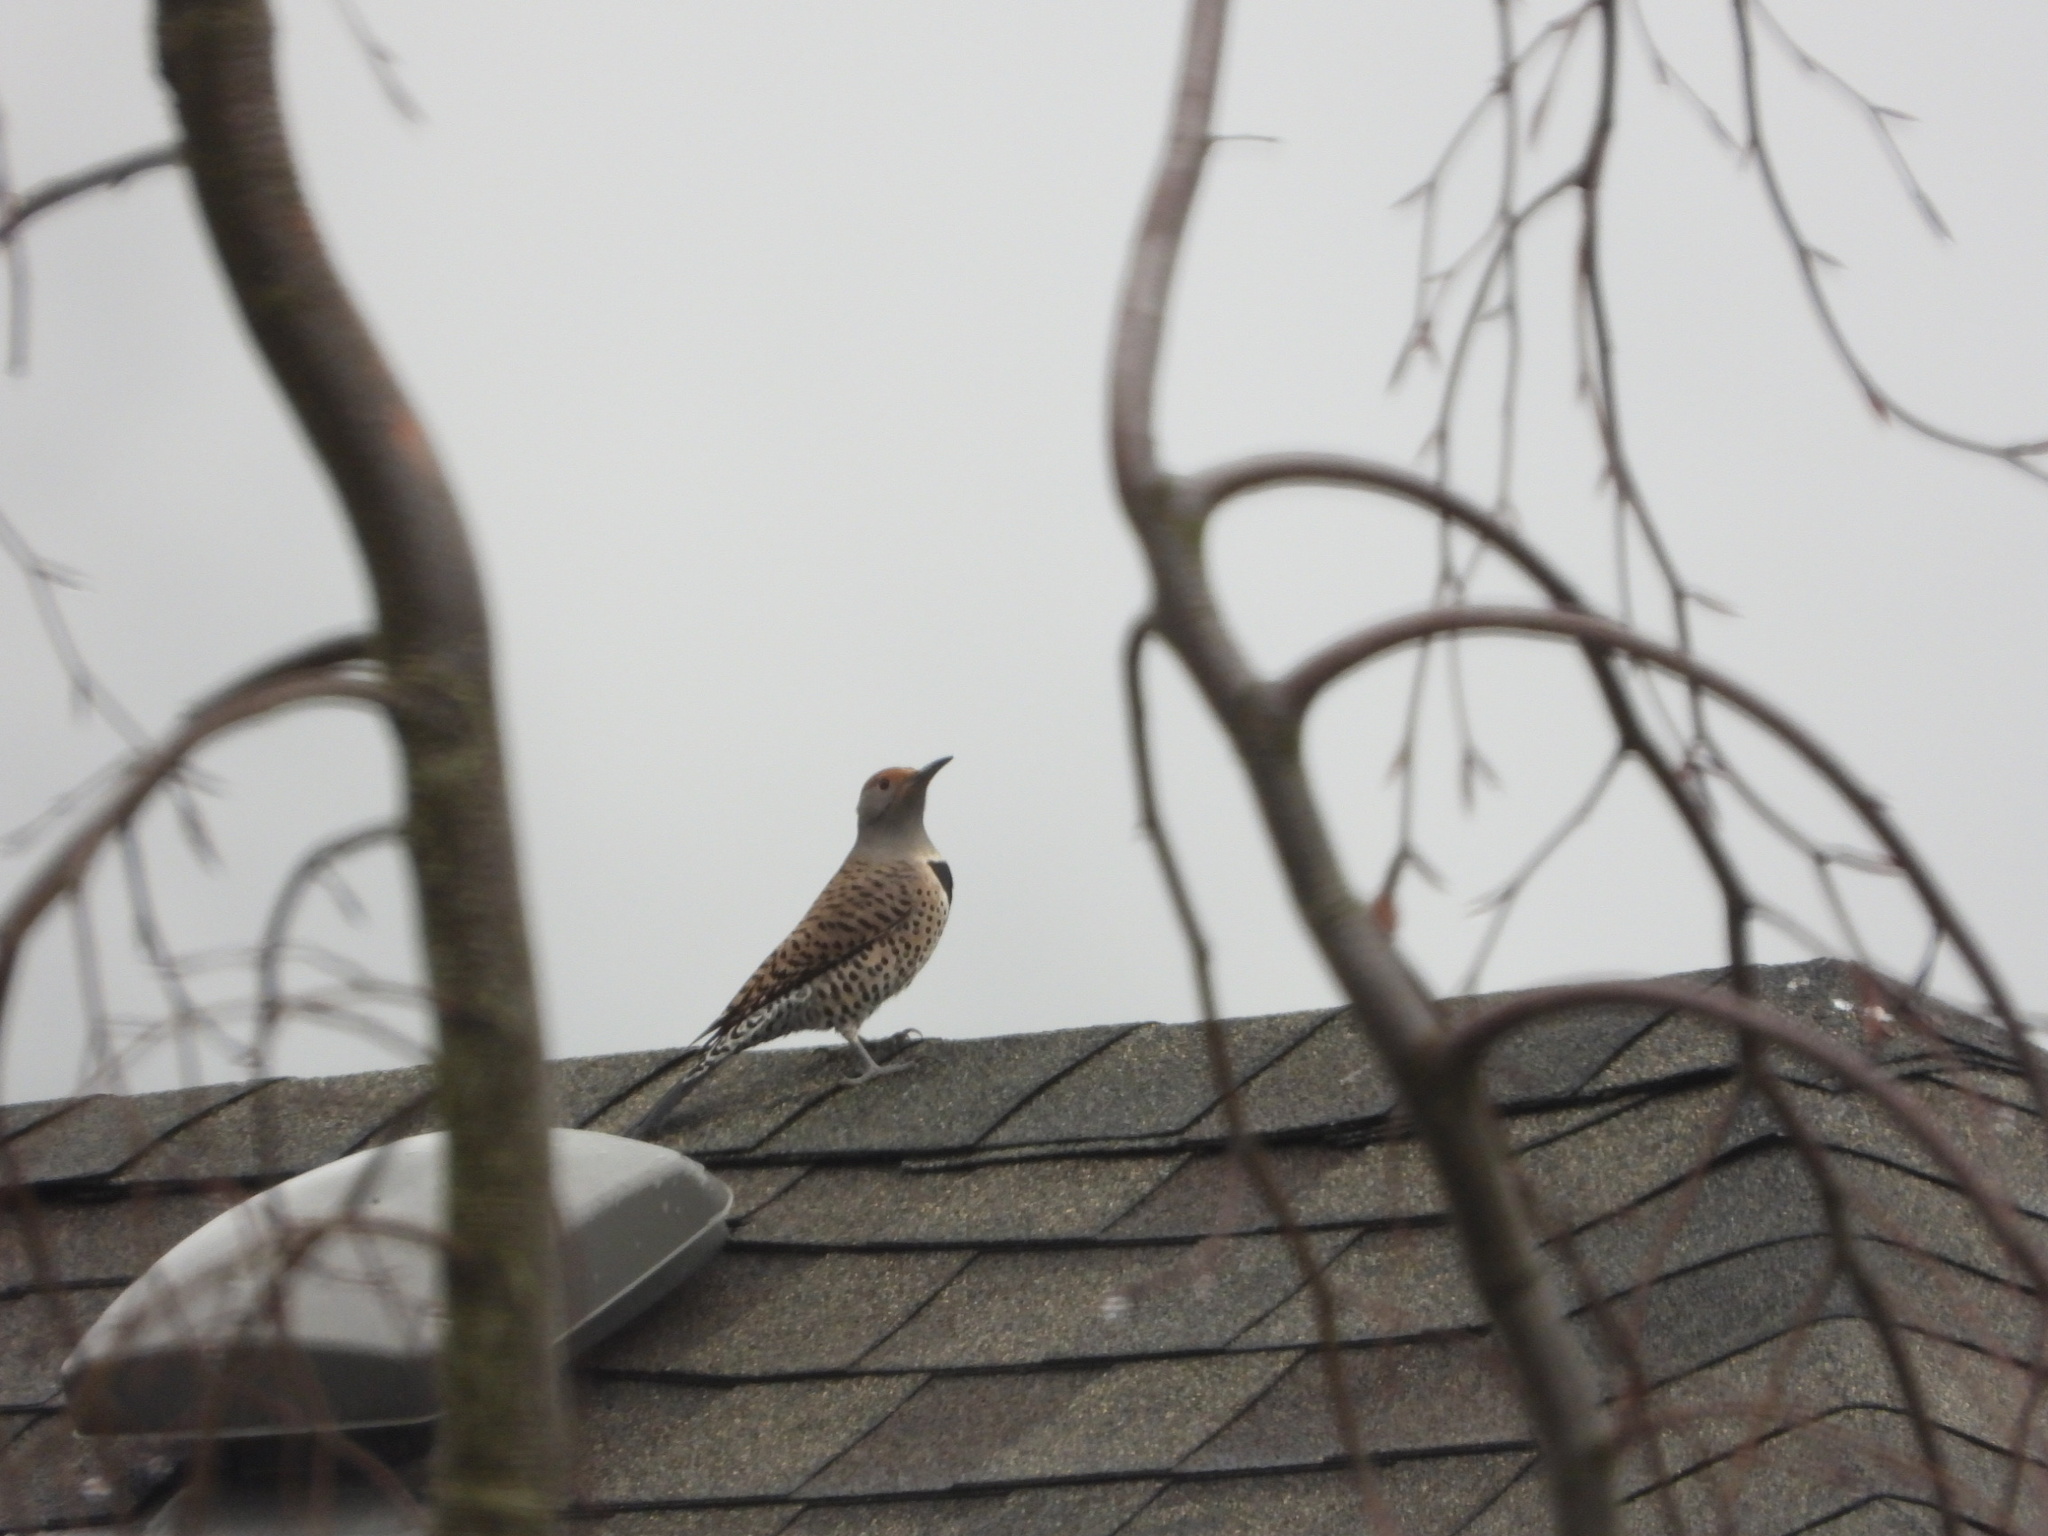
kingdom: Animalia
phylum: Chordata
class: Aves
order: Piciformes
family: Picidae
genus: Colaptes
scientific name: Colaptes auratus
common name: Northern flicker
